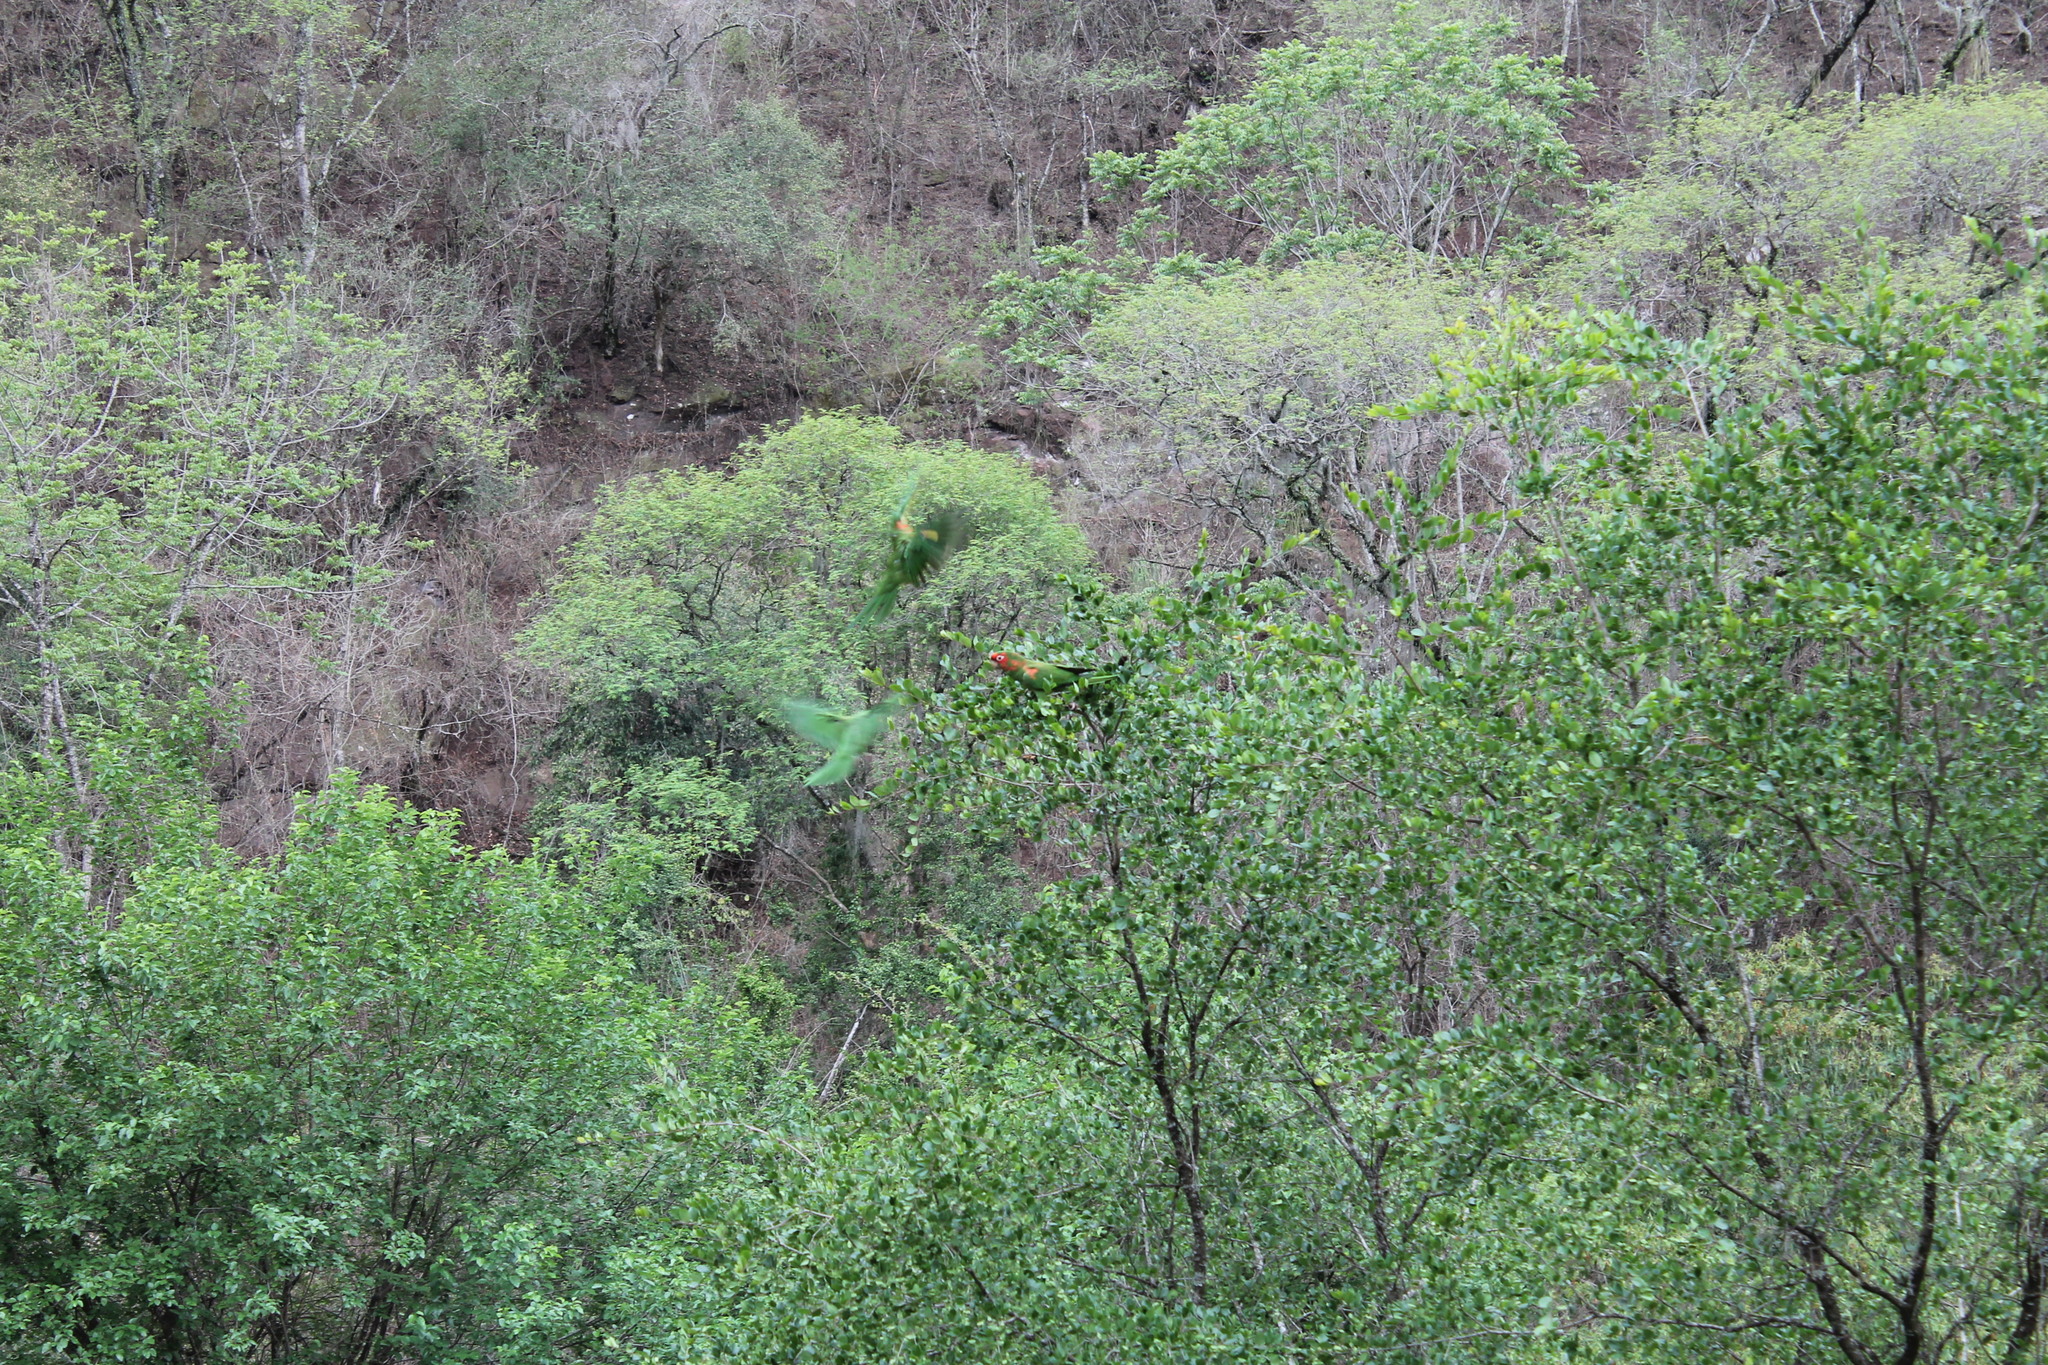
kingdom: Animalia
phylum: Chordata
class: Aves
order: Psittaciformes
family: Psittacidae
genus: Aratinga
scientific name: Aratinga mitrata
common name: Mitred parakeet
